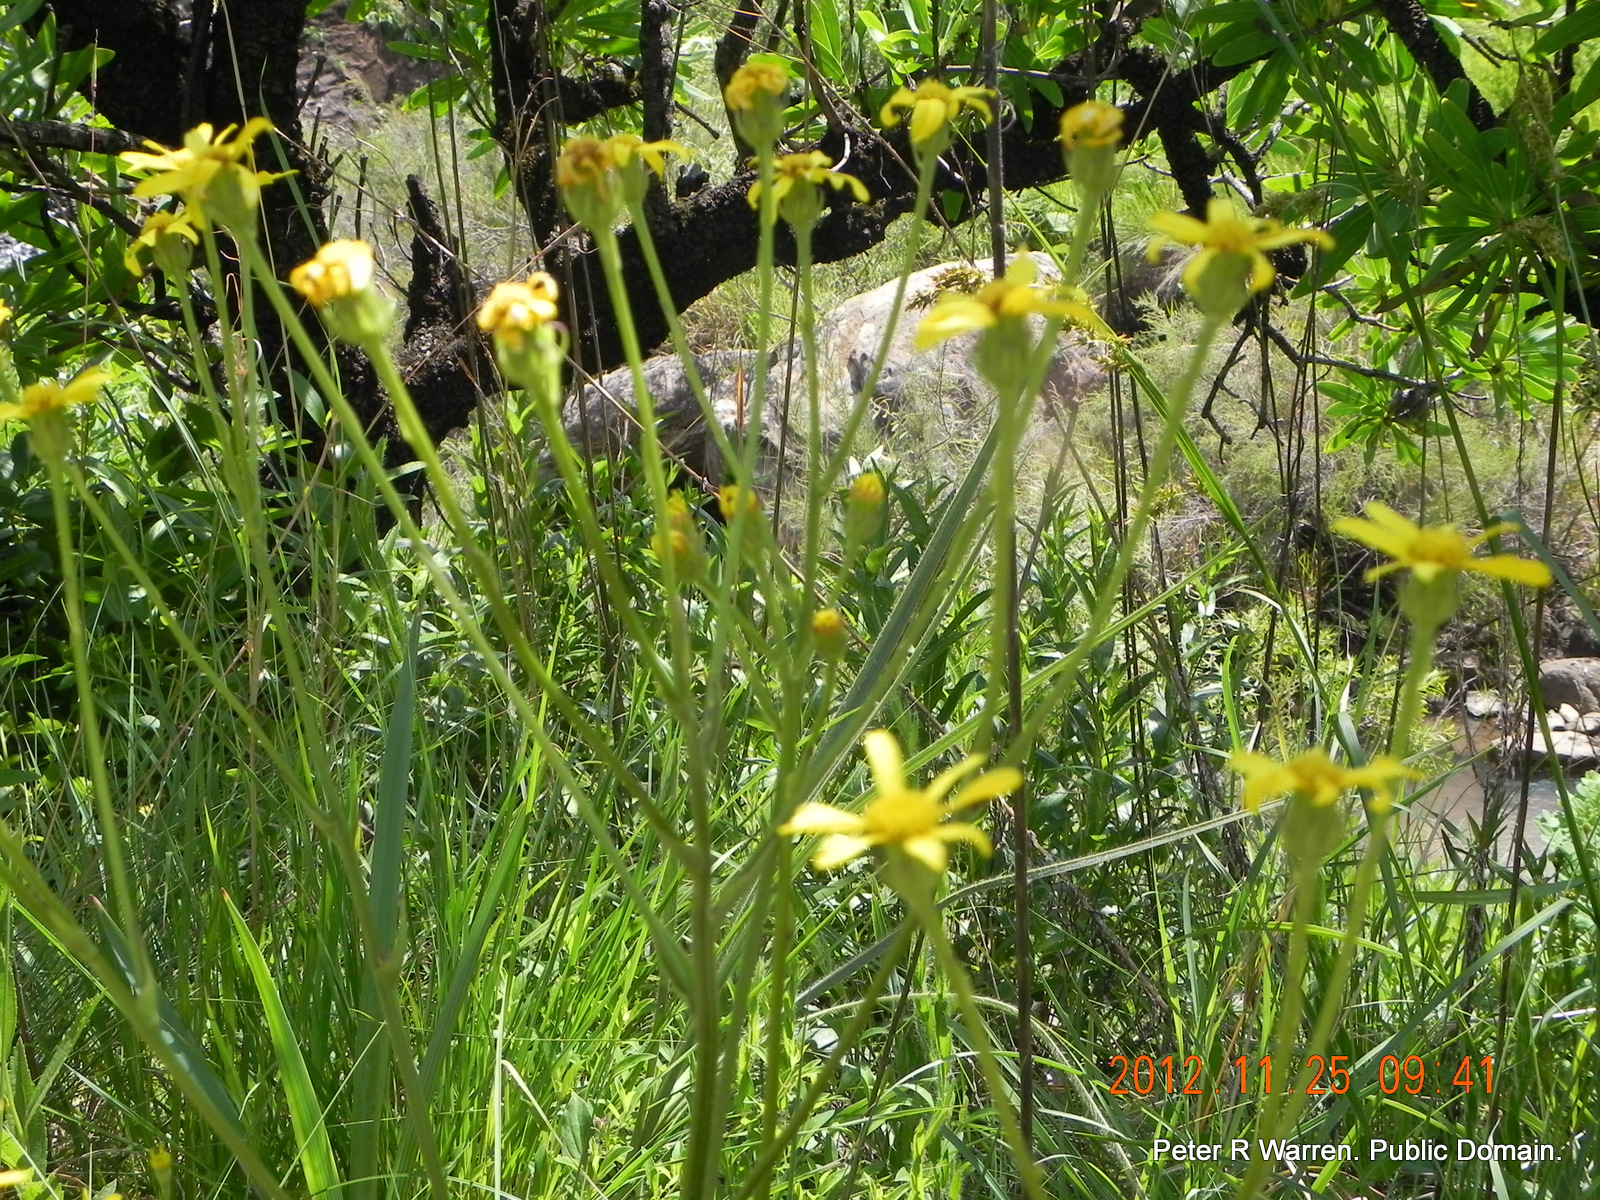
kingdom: Plantae
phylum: Tracheophyta
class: Magnoliopsida
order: Asterales
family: Asteraceae
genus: Senecio
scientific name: Senecio parentalis
